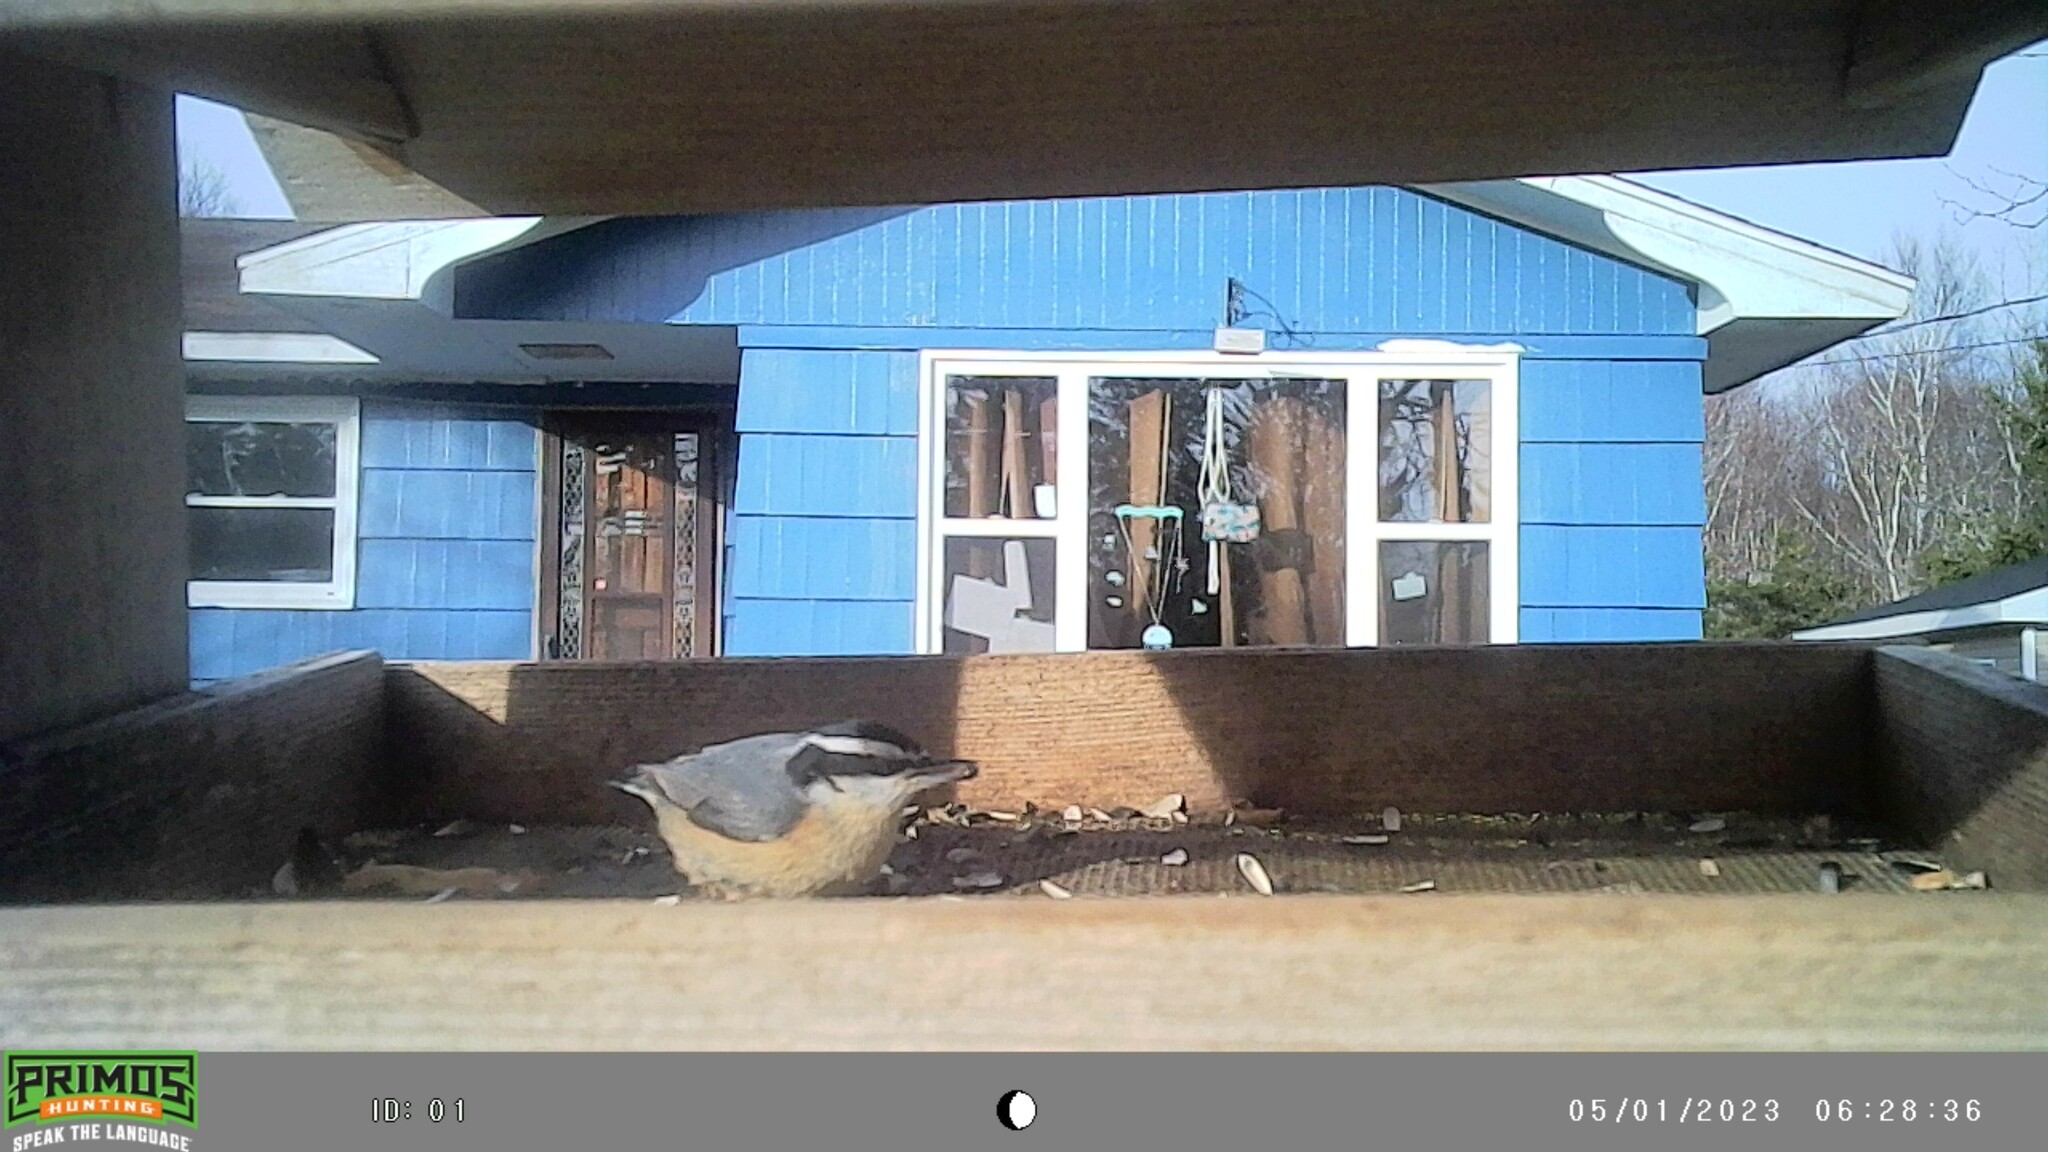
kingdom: Animalia
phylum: Chordata
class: Aves
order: Passeriformes
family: Sittidae
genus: Sitta
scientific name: Sitta canadensis
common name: Red-breasted nuthatch
